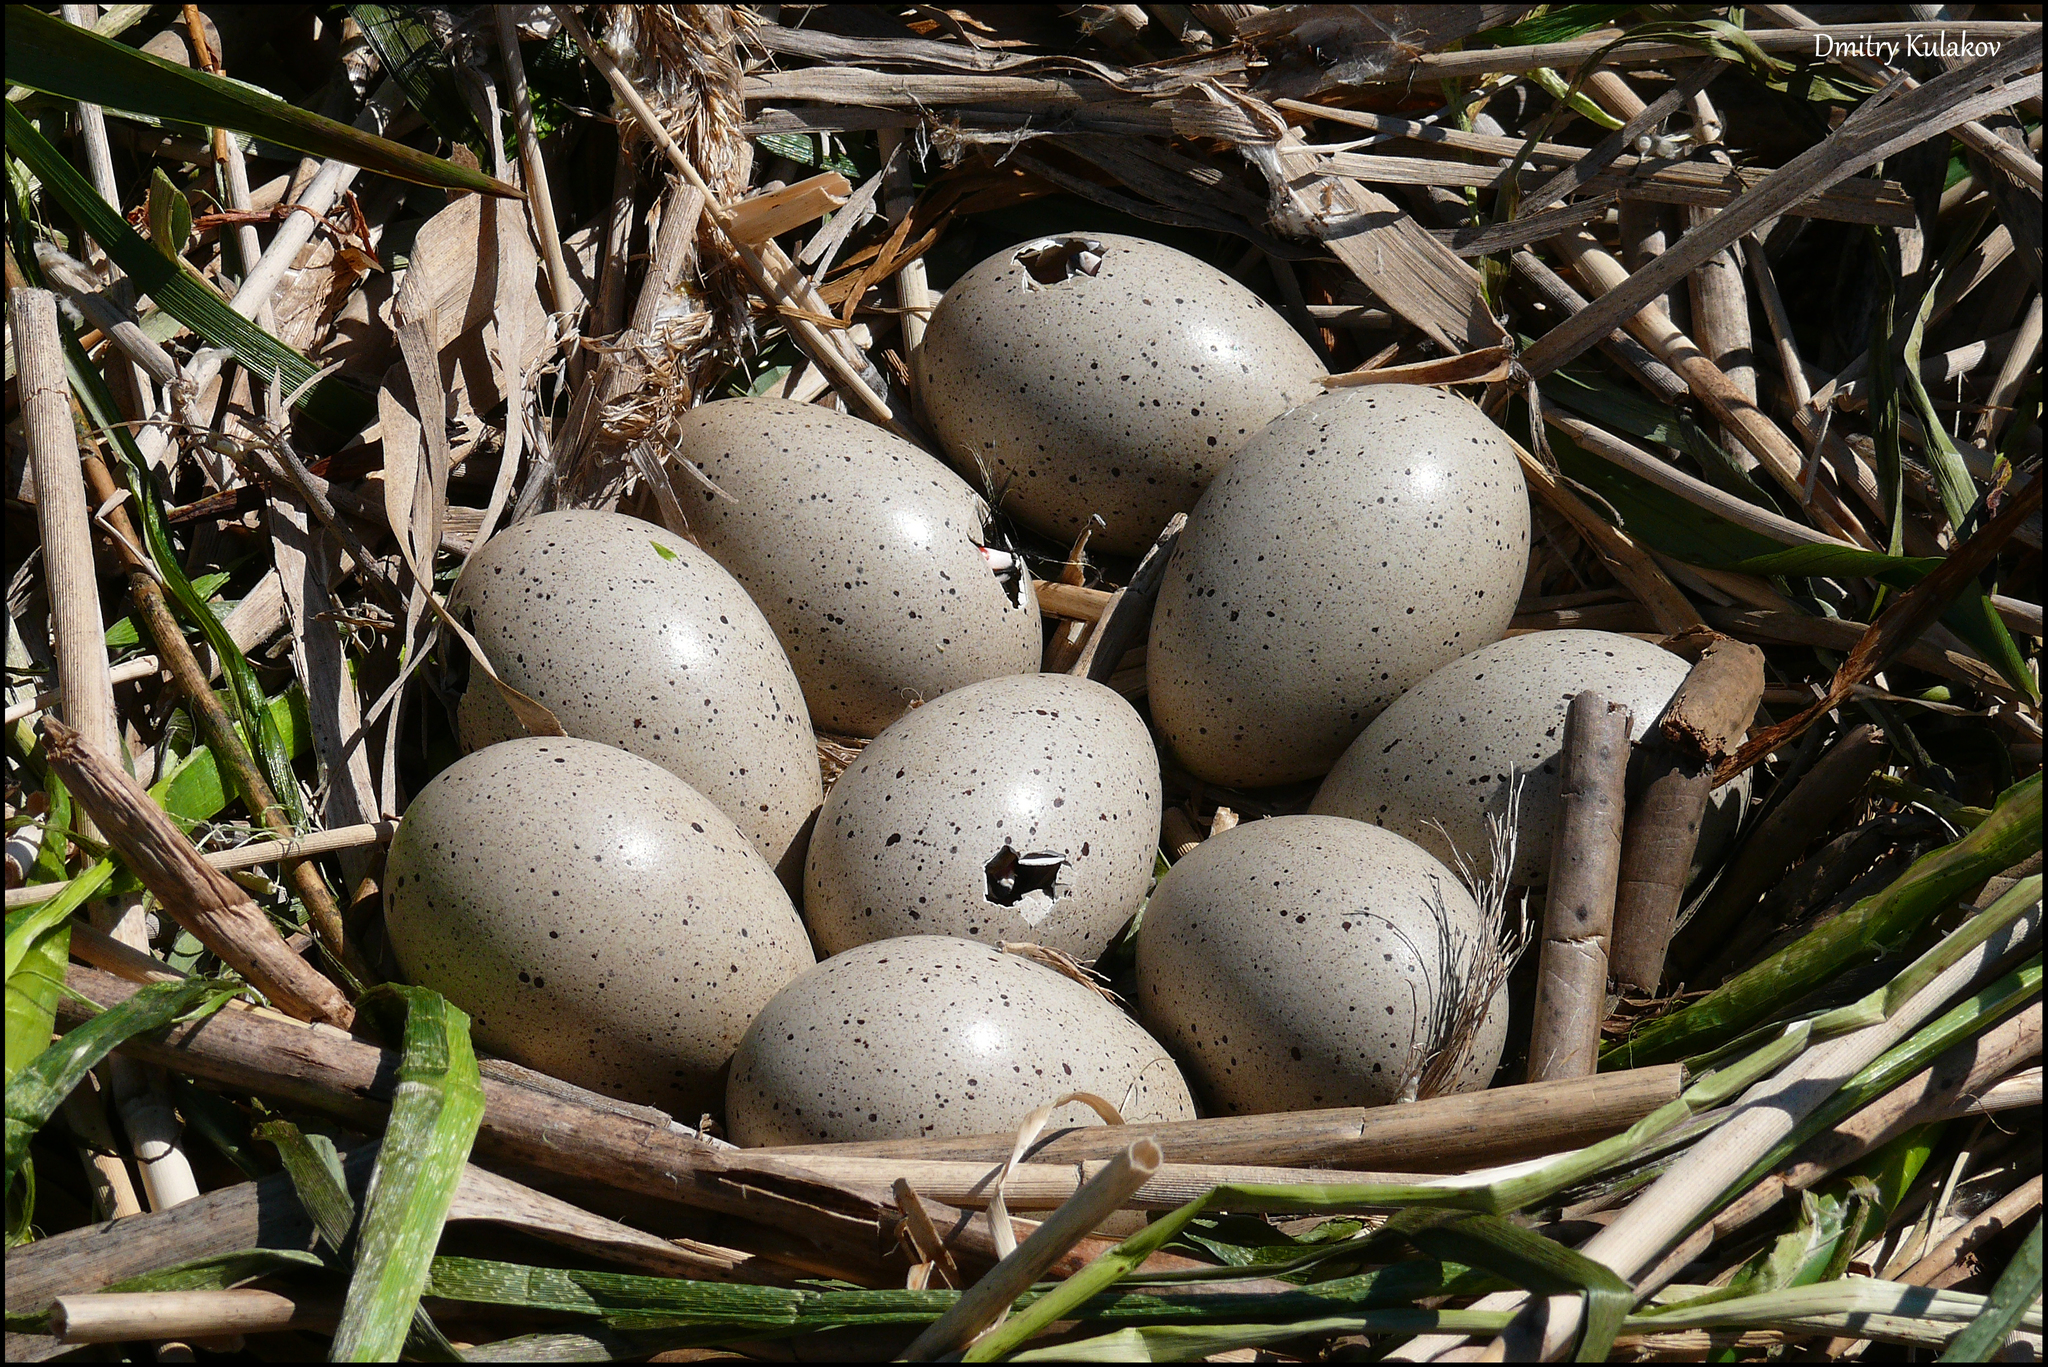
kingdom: Animalia
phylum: Chordata
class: Aves
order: Gruiformes
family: Rallidae
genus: Fulica
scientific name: Fulica atra
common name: Eurasian coot
